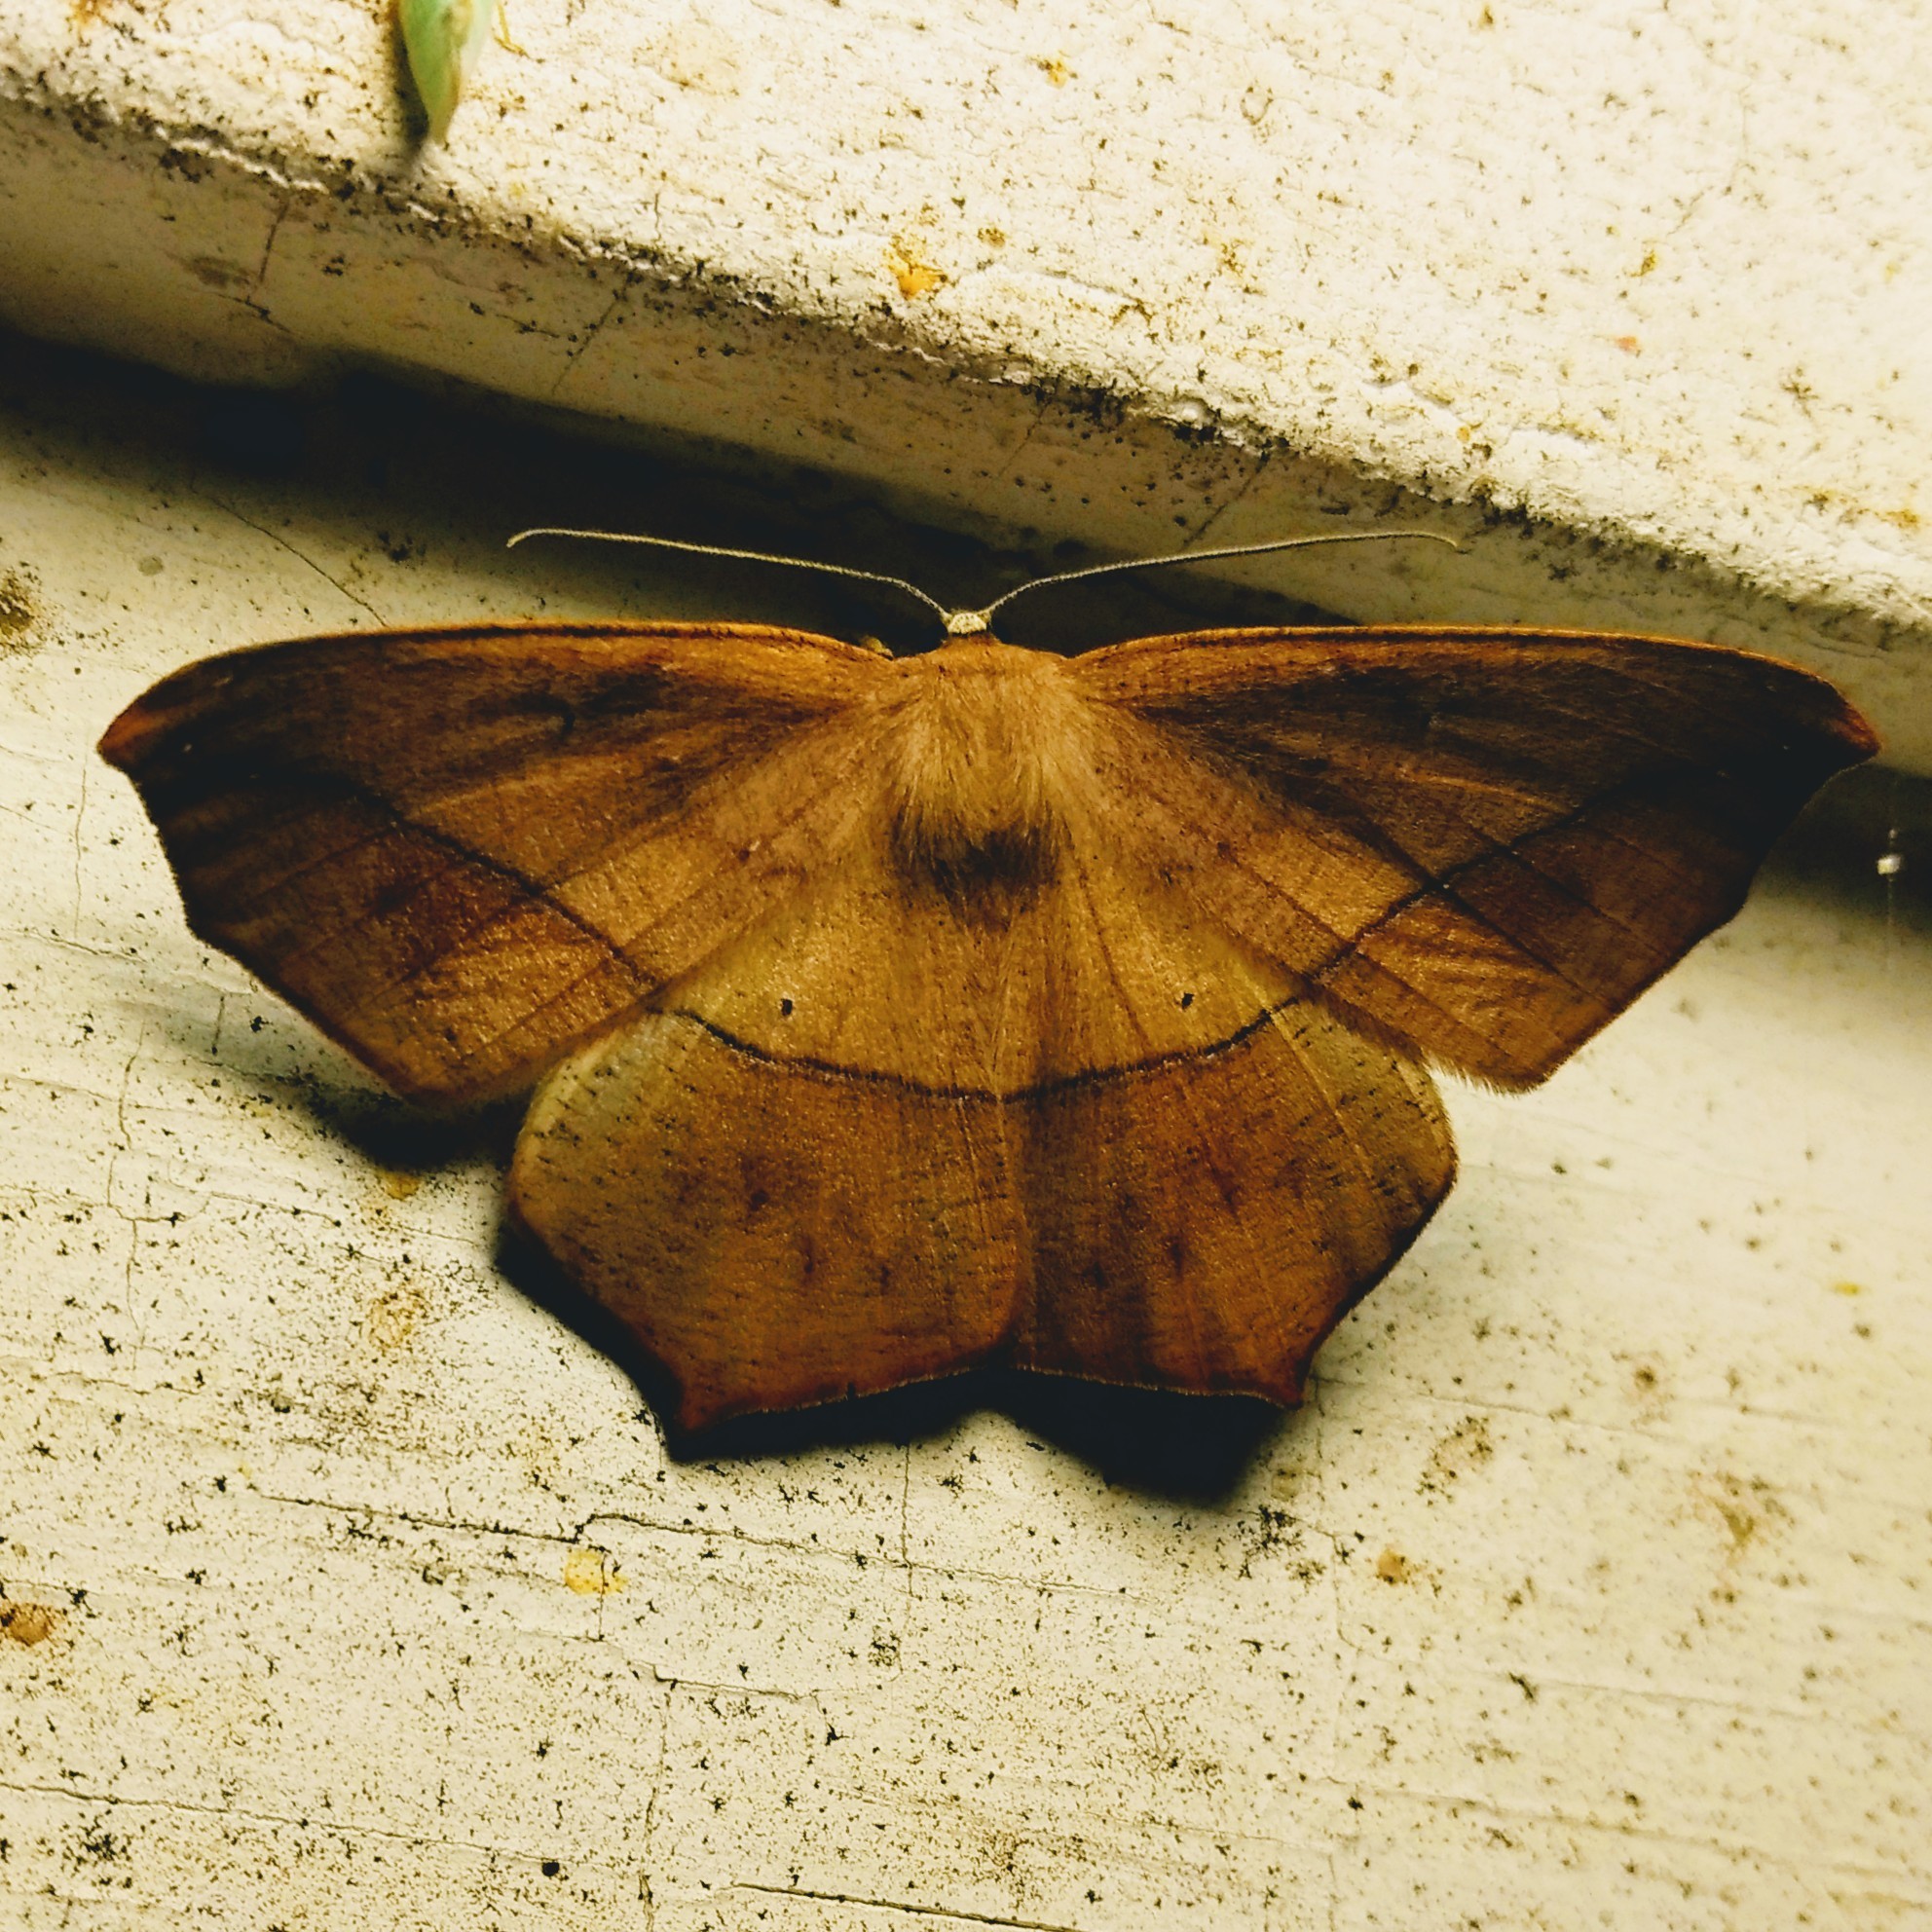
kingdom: Animalia
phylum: Arthropoda
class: Insecta
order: Lepidoptera
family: Geometridae
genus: Prochoerodes
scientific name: Prochoerodes lineola
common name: Large maple spanworm
